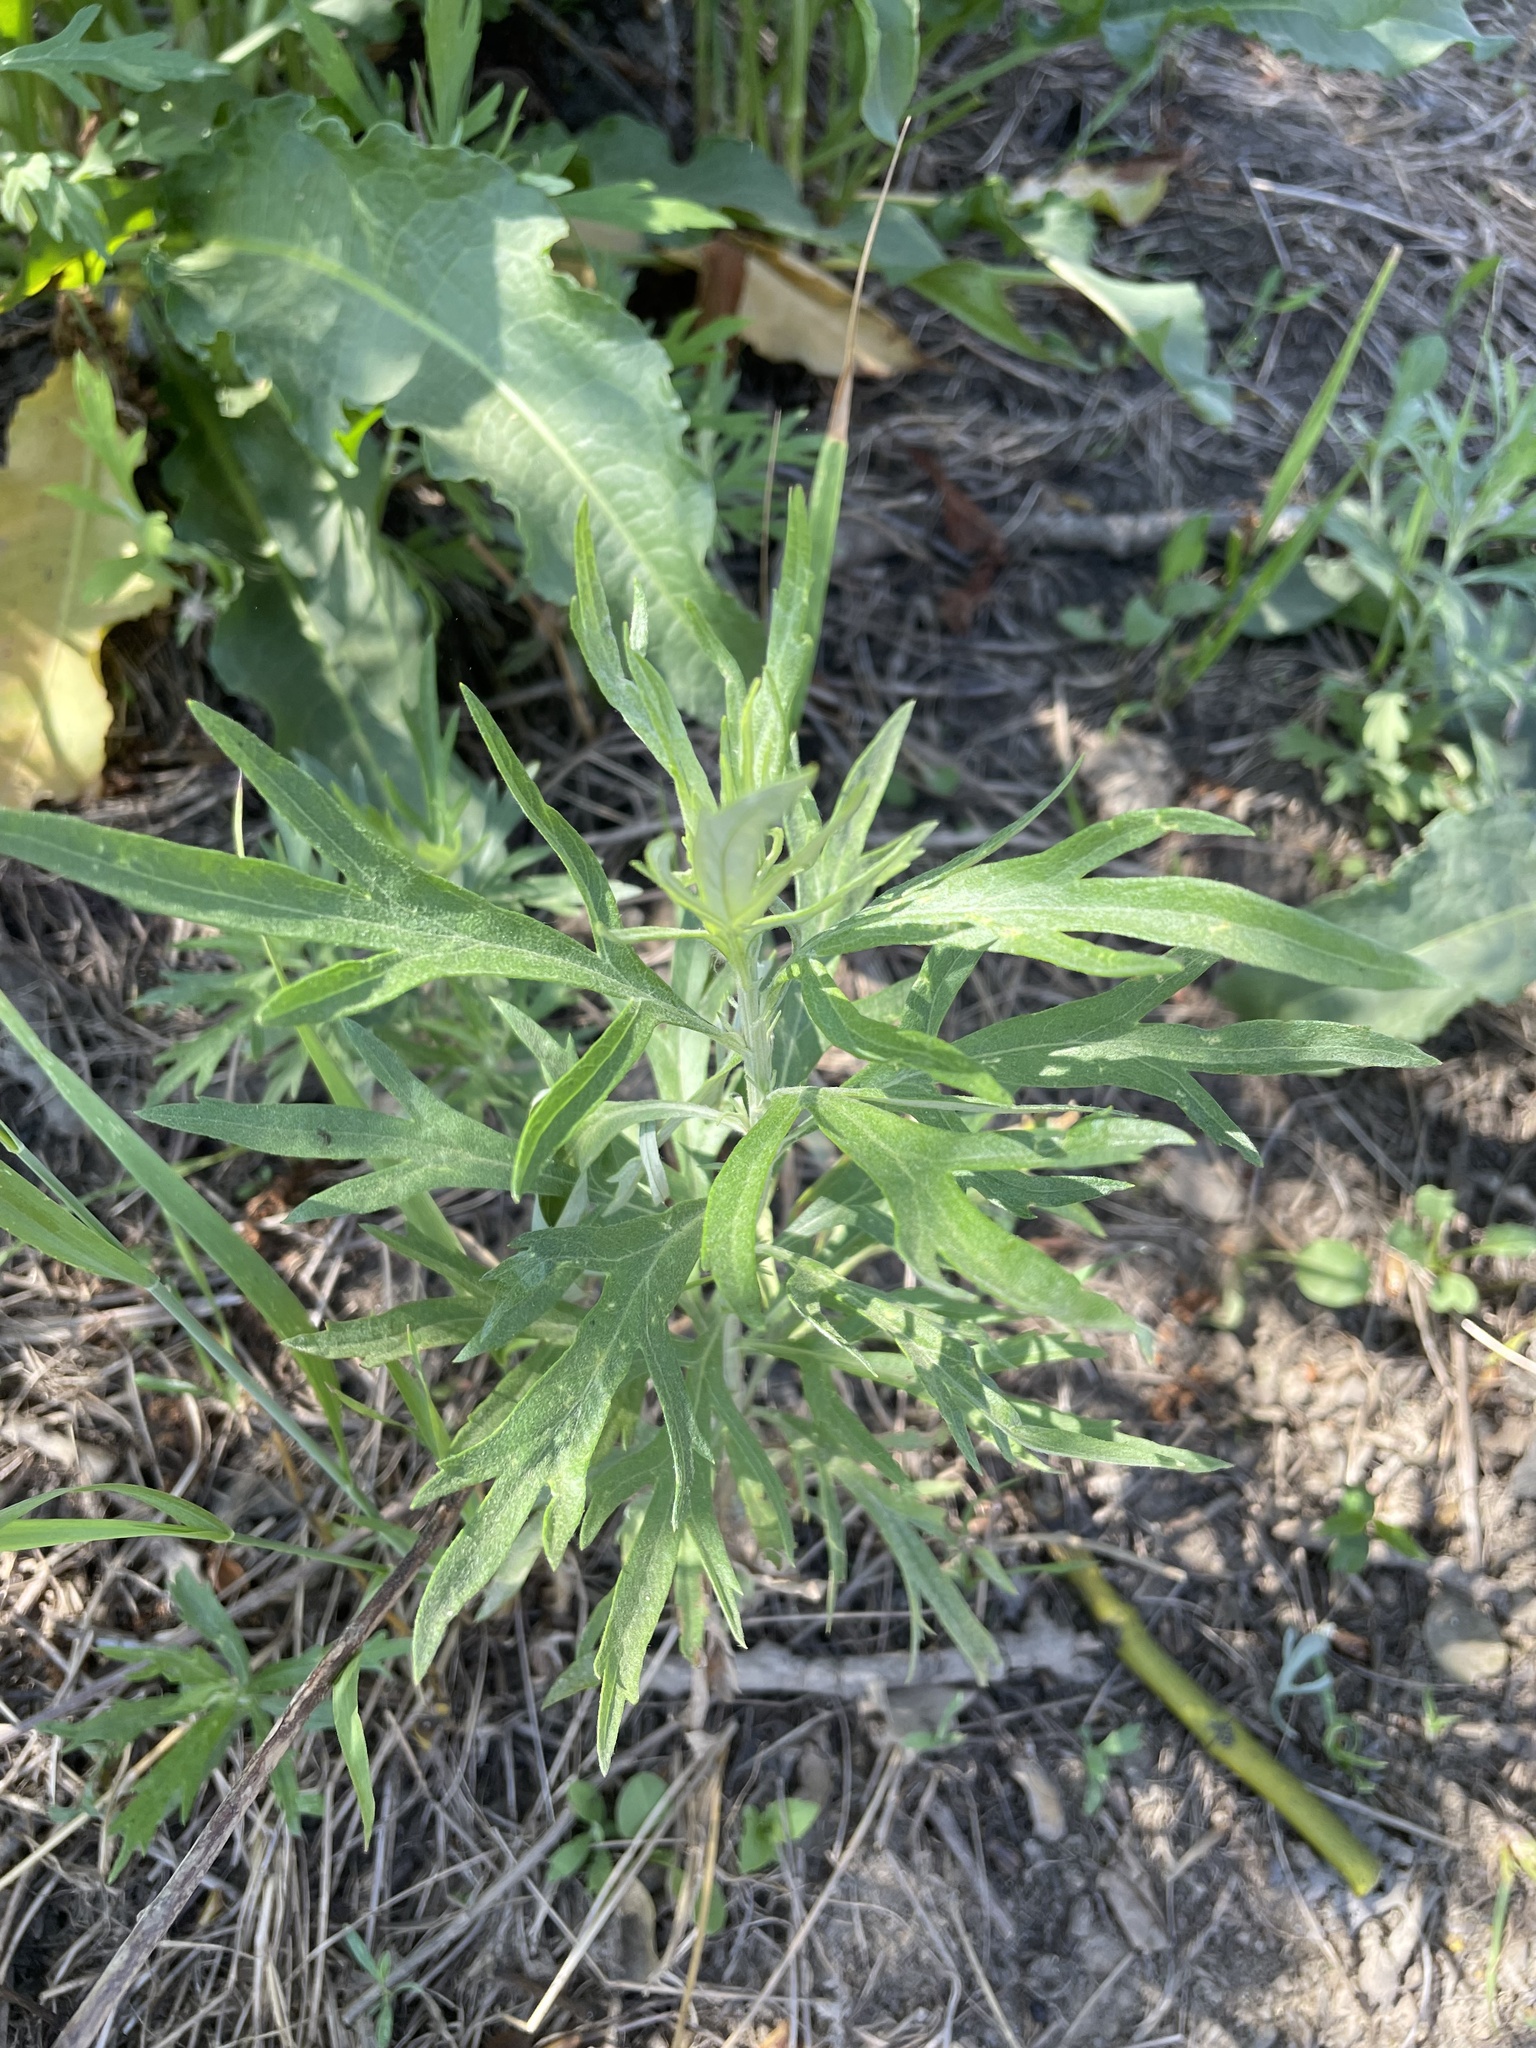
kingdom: Plantae
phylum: Tracheophyta
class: Magnoliopsida
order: Asterales
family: Asteraceae
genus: Artemisia
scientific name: Artemisia douglasiana
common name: Northwest mugwort
